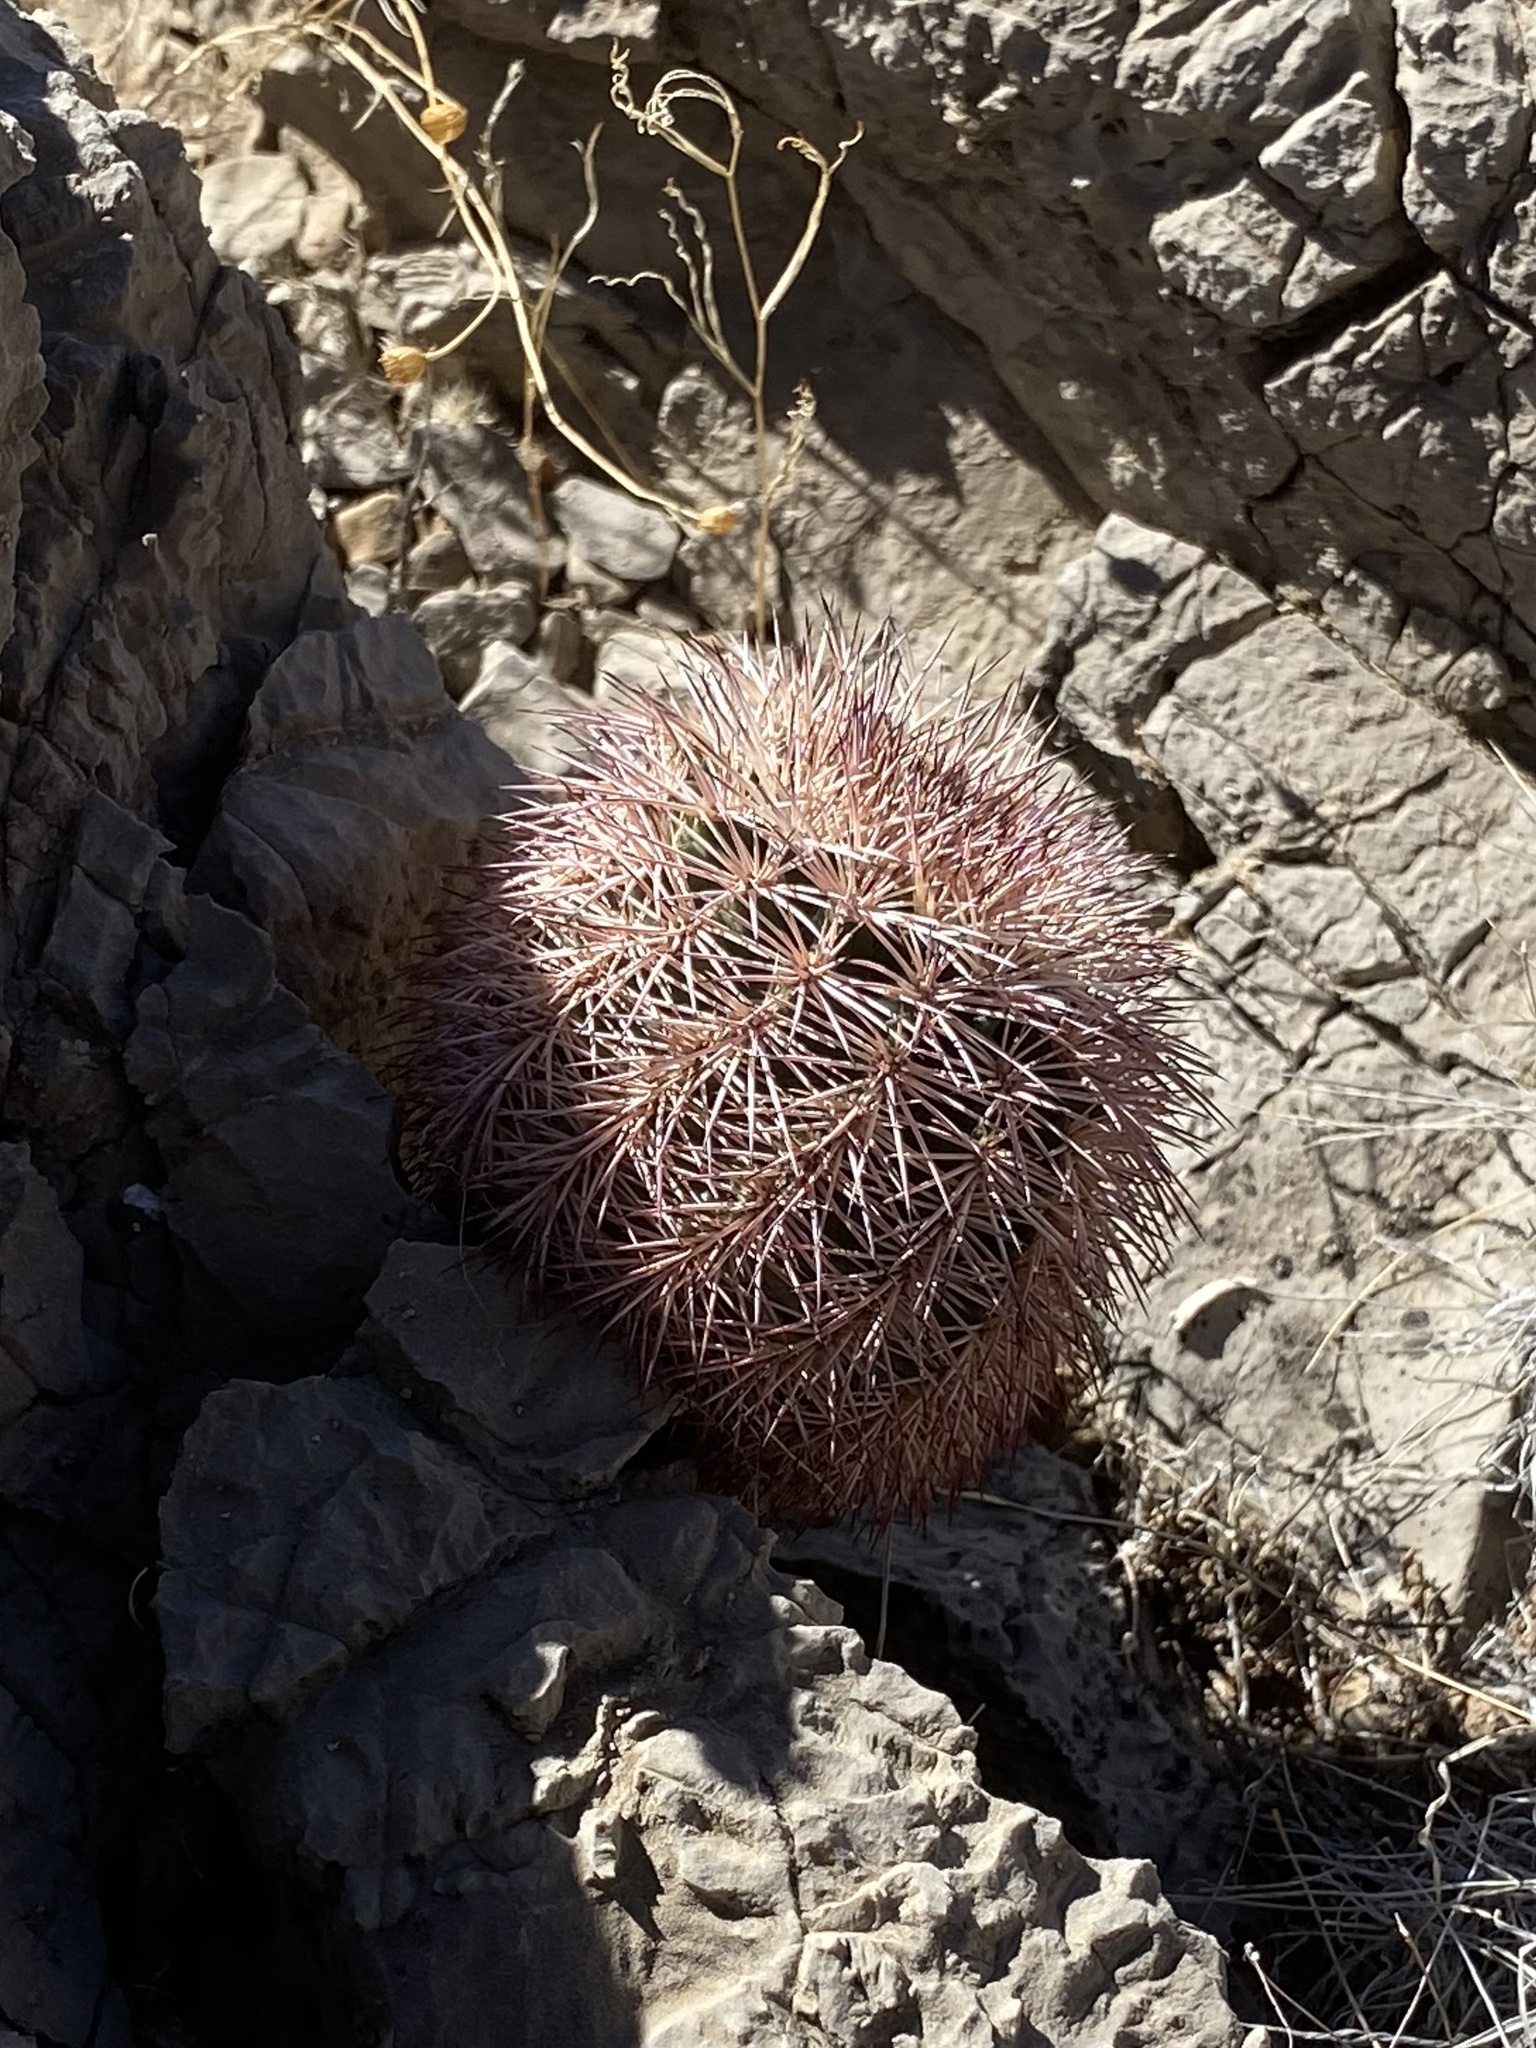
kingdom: Plantae
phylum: Tracheophyta
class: Magnoliopsida
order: Caryophyllales
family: Cactaceae
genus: Echinocereus
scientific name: Echinocereus dasyacanthus
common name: Spiny hedgehog cactus
